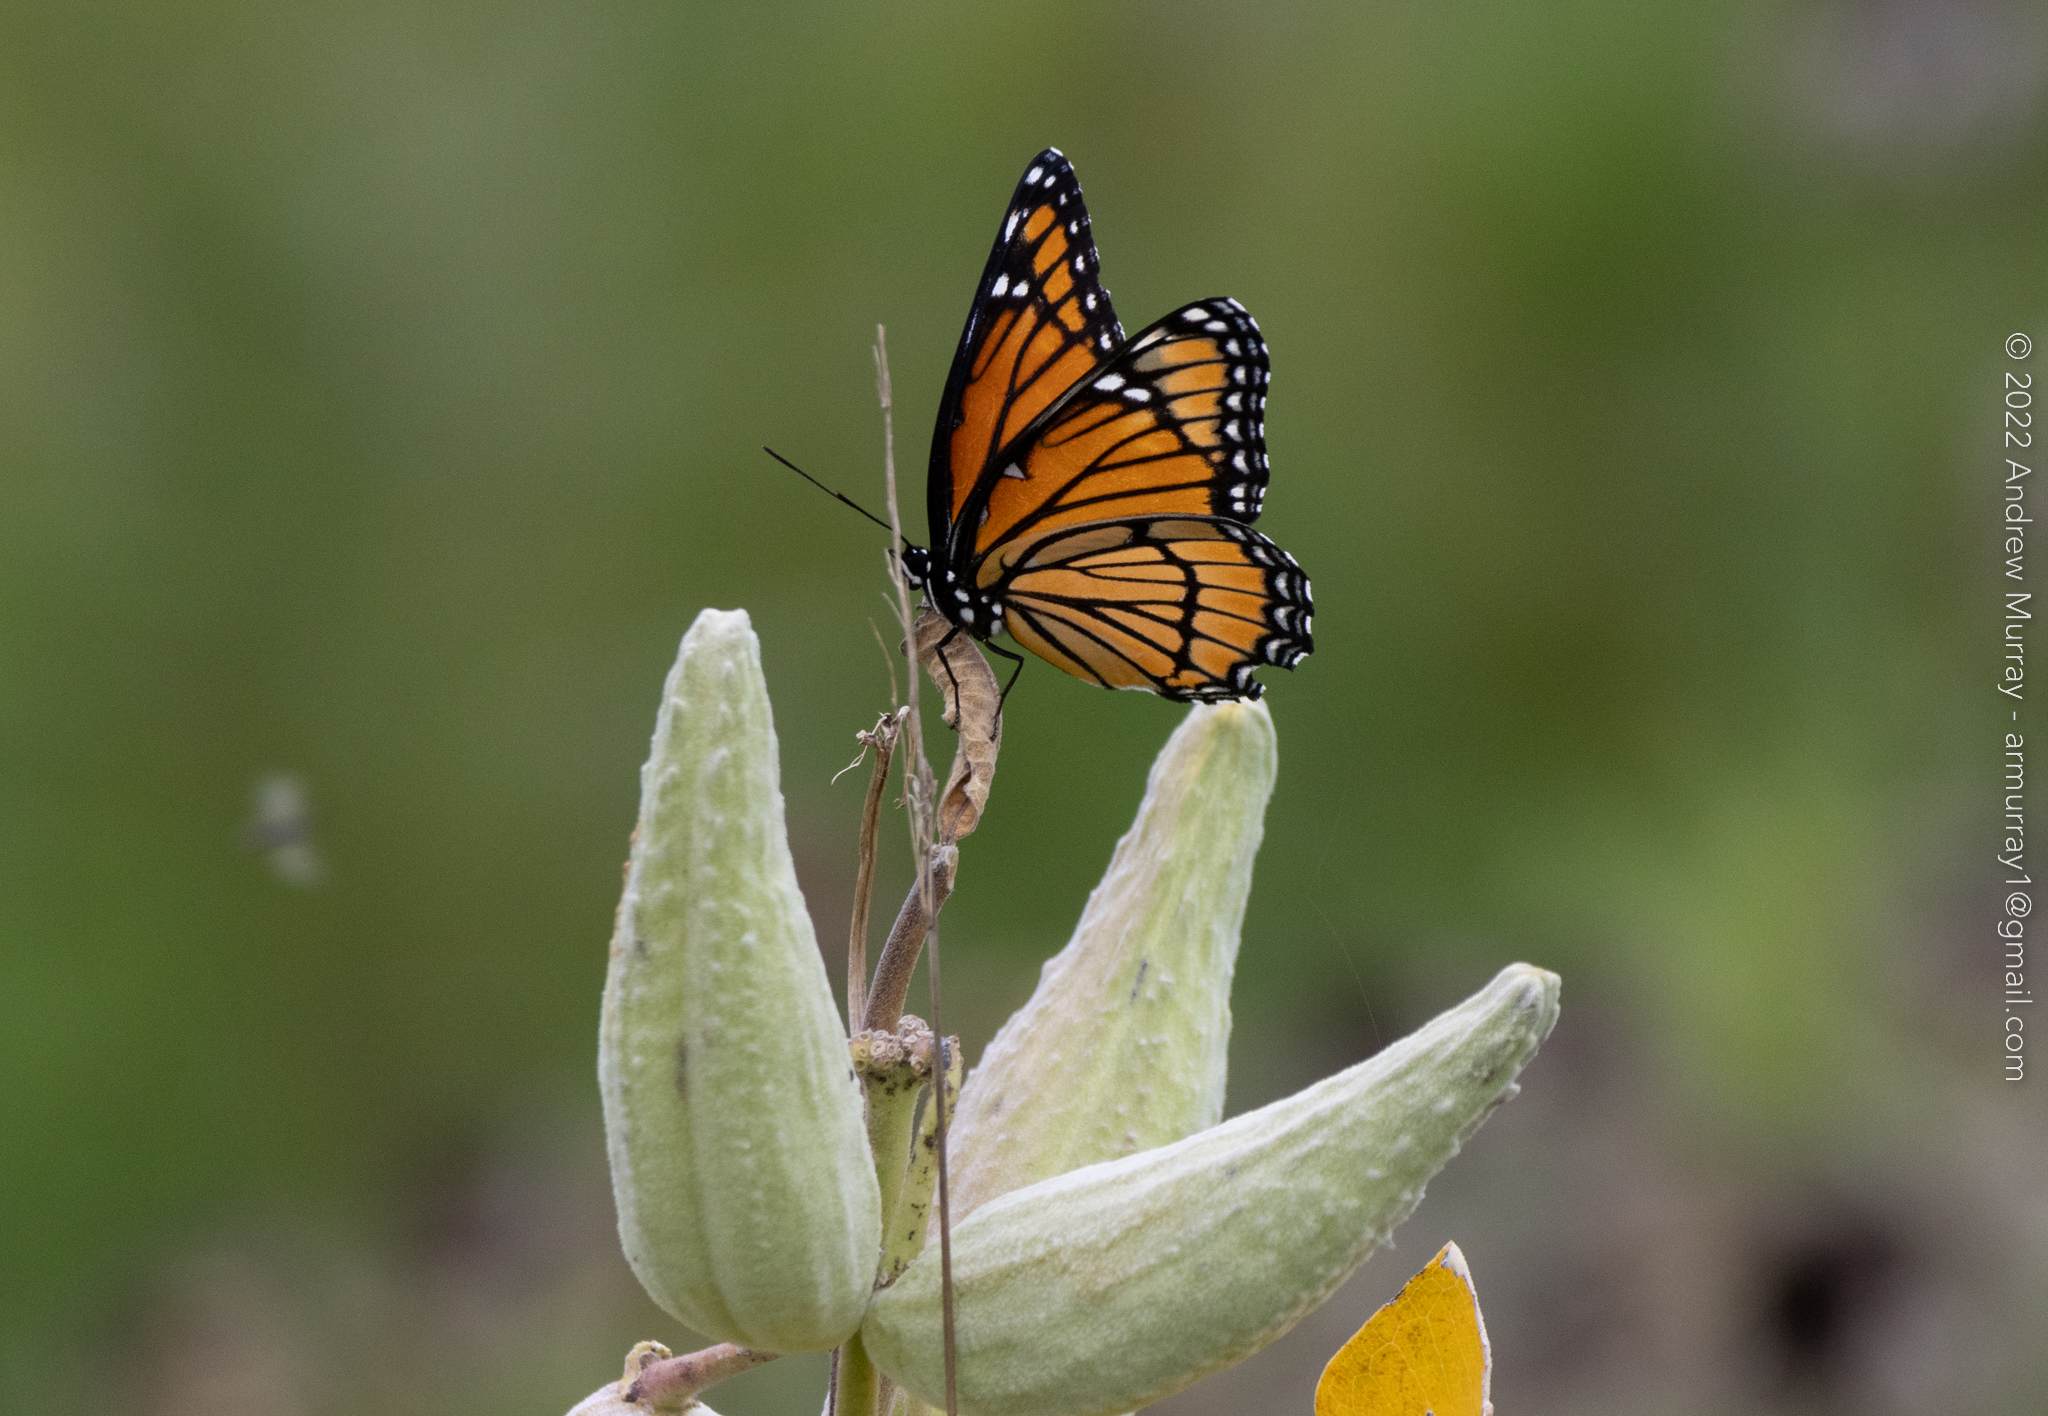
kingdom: Animalia
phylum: Arthropoda
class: Insecta
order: Lepidoptera
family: Nymphalidae
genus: Limenitis
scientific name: Limenitis archippus
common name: Viceroy
